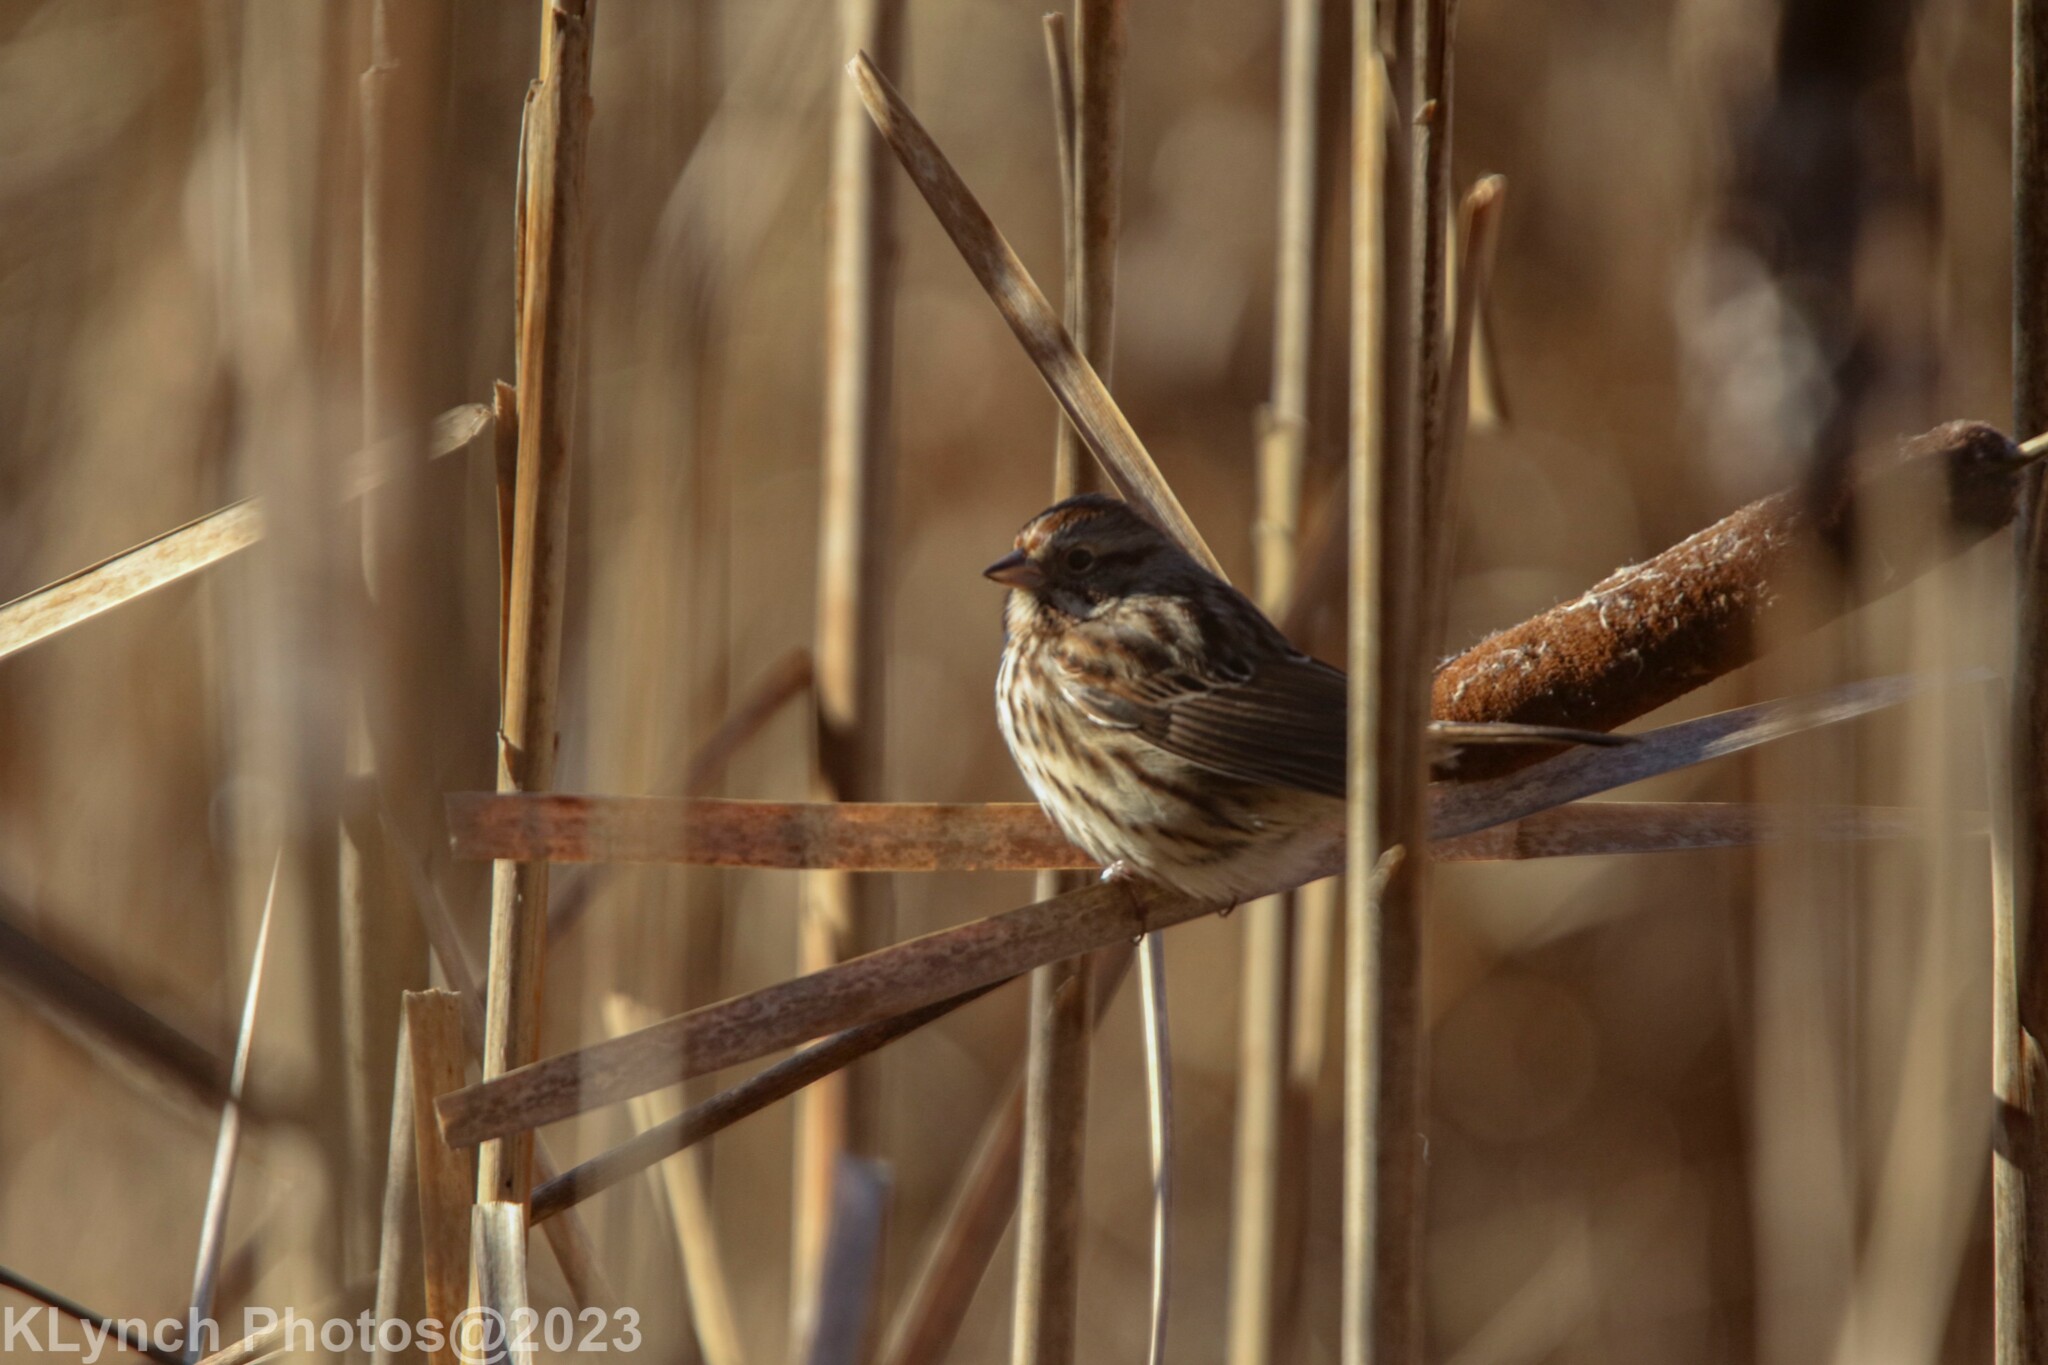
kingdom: Animalia
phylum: Chordata
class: Aves
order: Passeriformes
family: Passerellidae
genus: Melospiza
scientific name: Melospiza melodia
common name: Song sparrow
